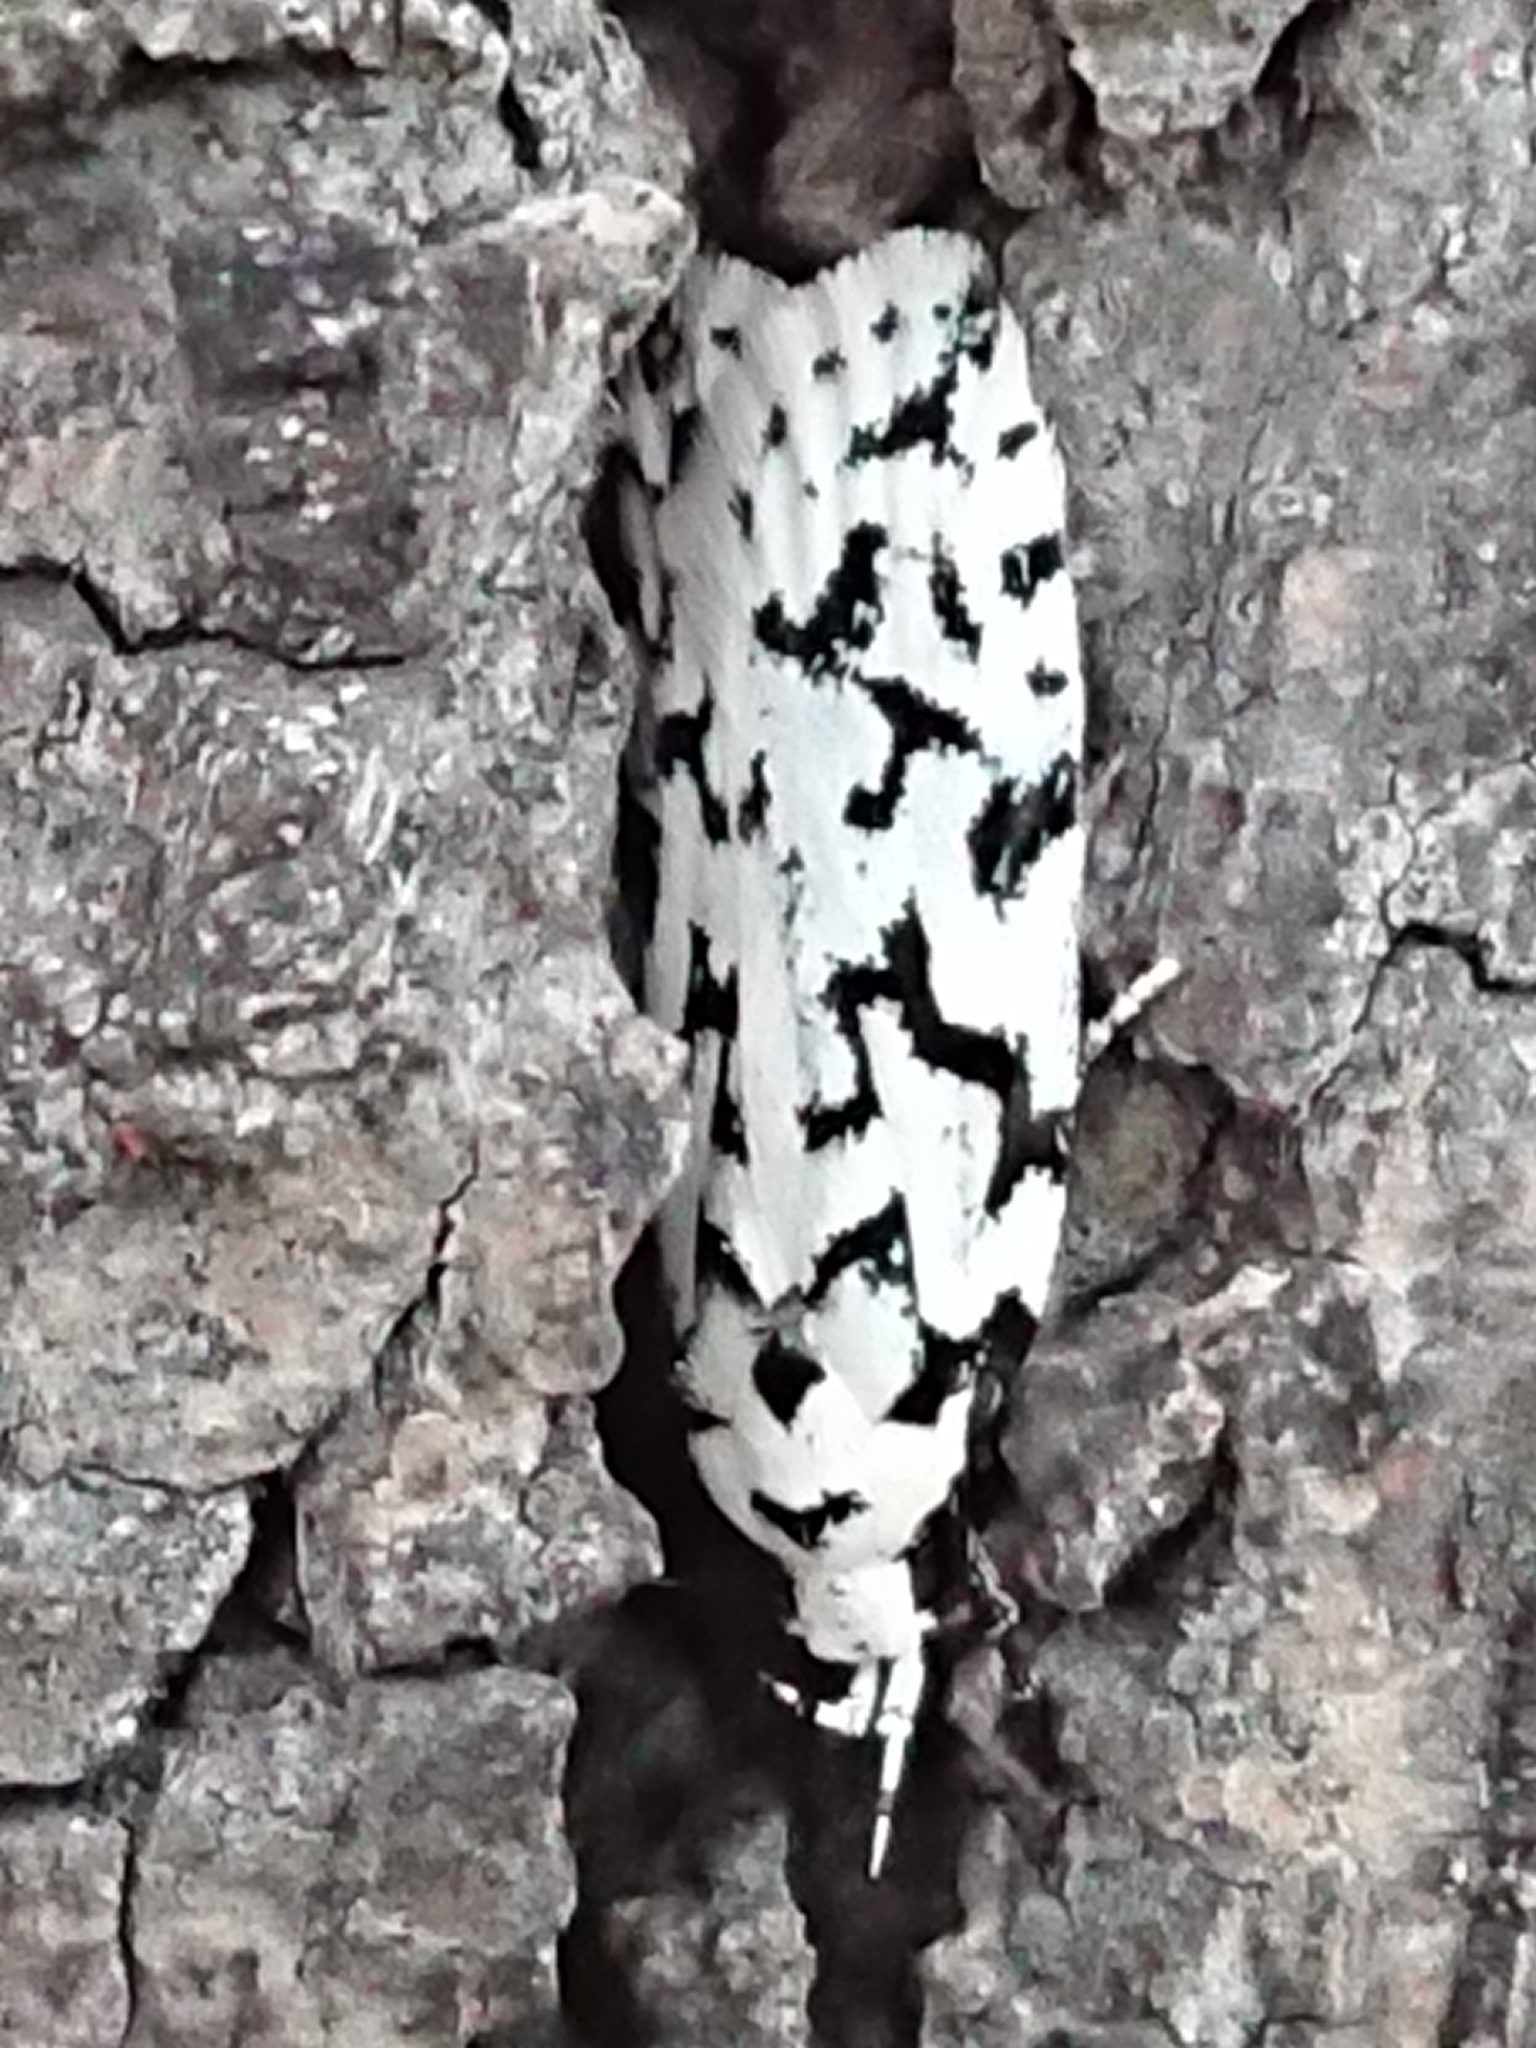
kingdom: Animalia
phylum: Arthropoda
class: Insecta
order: Lepidoptera
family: Oecophoridae
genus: Izatha
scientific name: Izatha katadiktya
